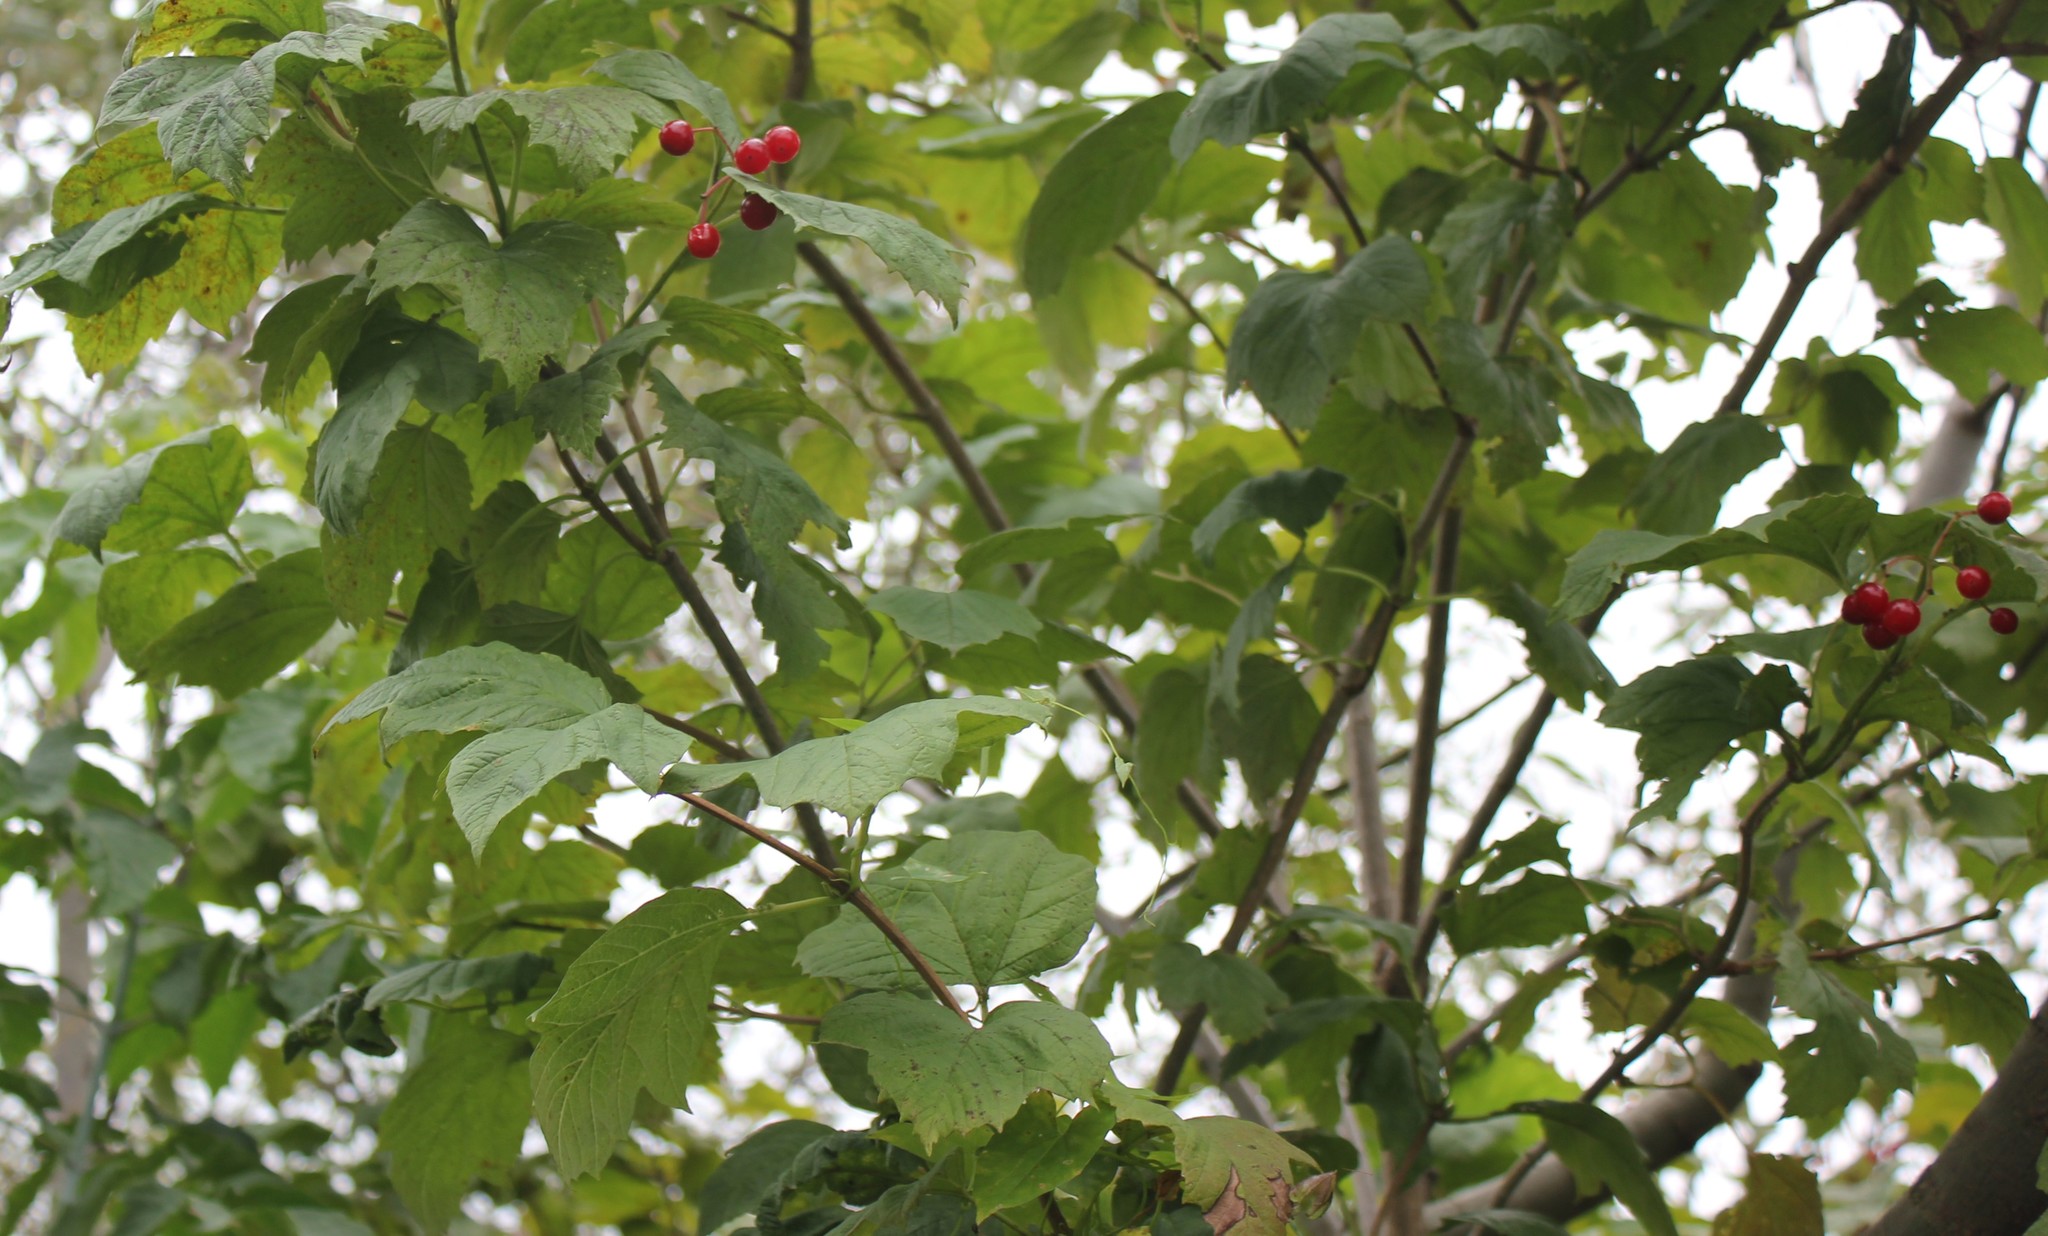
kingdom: Plantae
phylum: Tracheophyta
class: Magnoliopsida
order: Dipsacales
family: Viburnaceae
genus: Viburnum
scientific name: Viburnum opulus
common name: Guelder-rose
